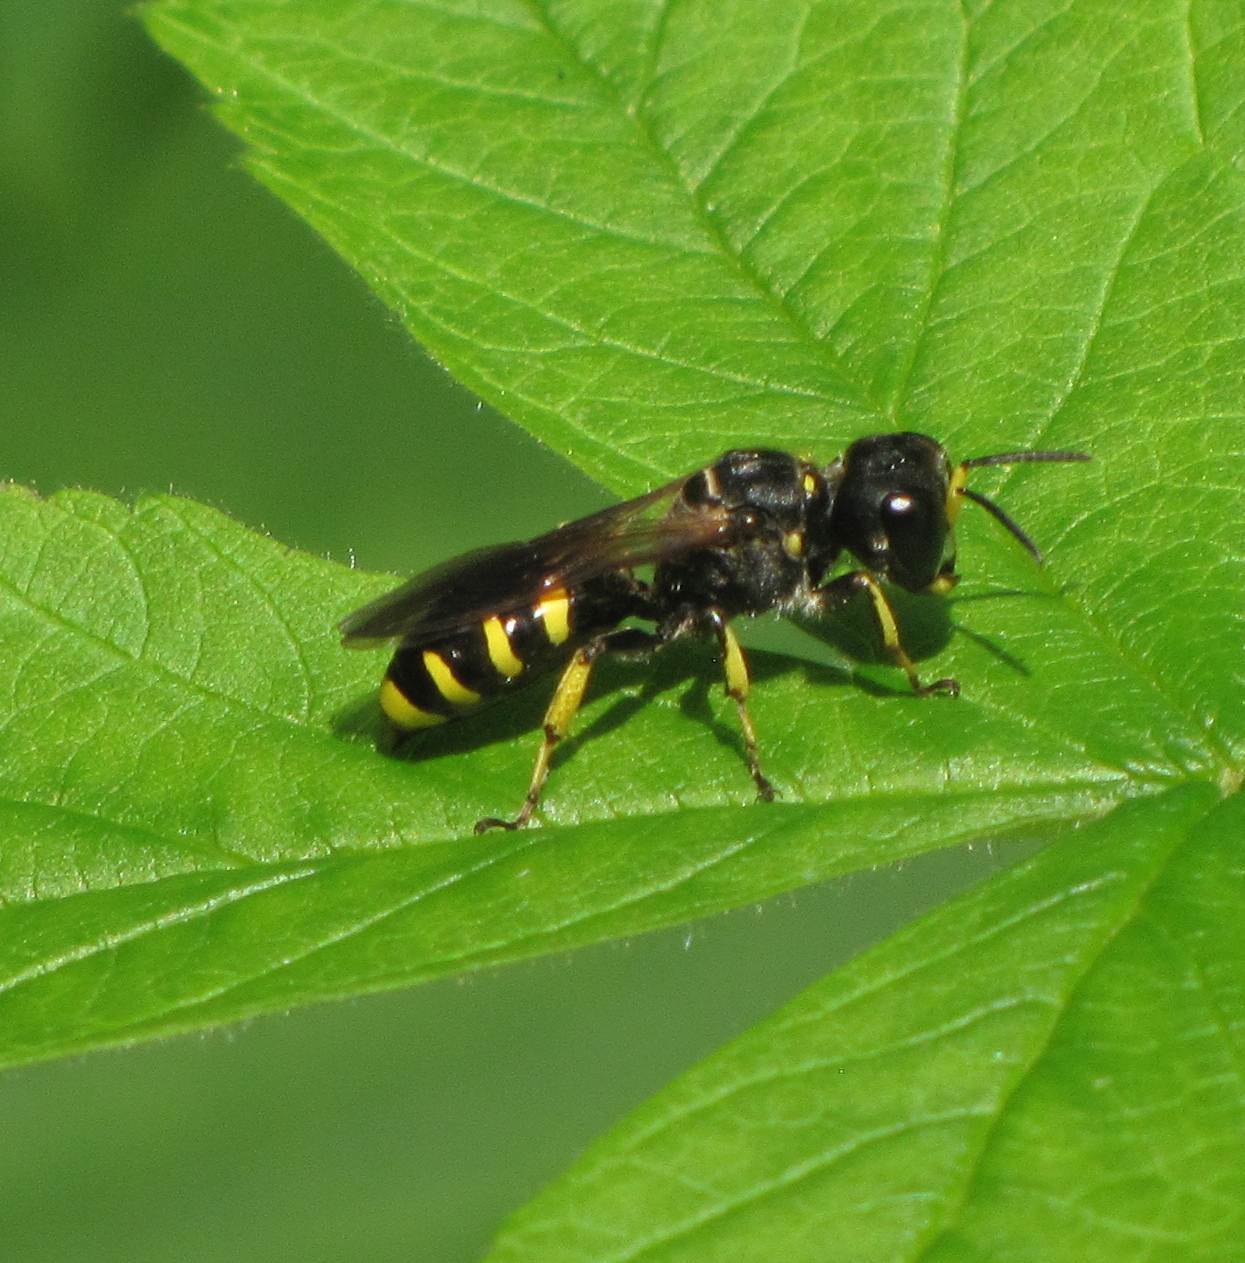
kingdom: Animalia
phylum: Arthropoda
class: Insecta
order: Hymenoptera
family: Crabronidae
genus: Ectemnius
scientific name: Ectemnius cephalotes
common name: Sphecid wasp
